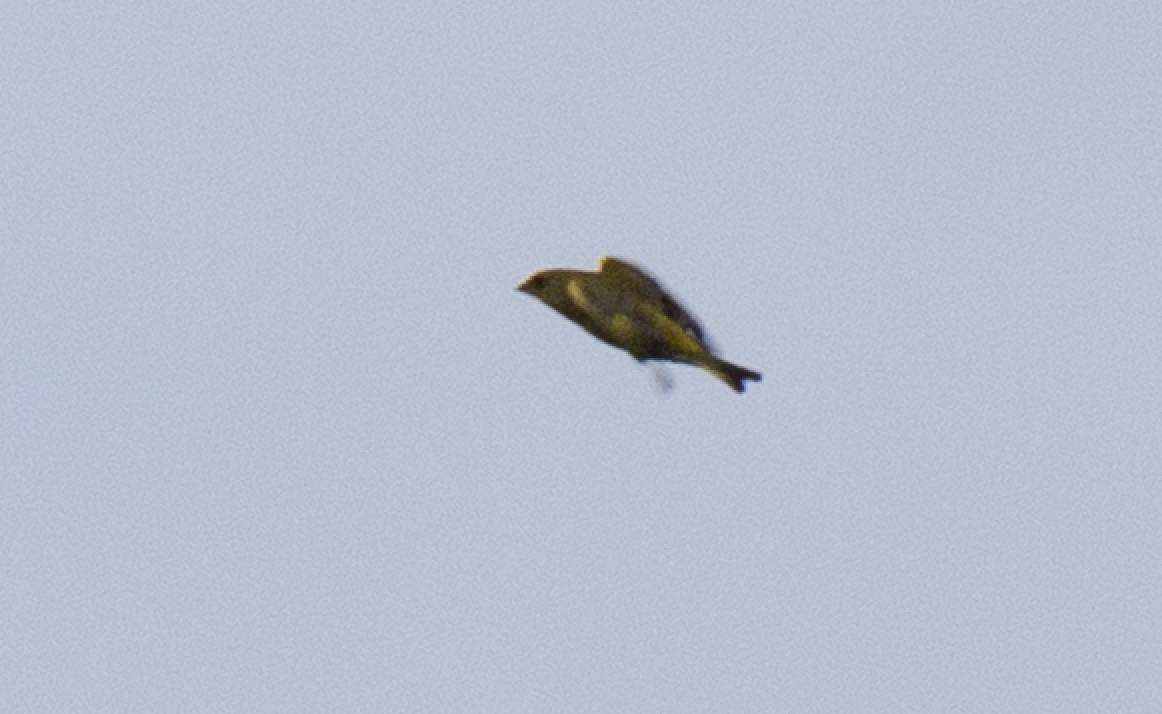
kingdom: Plantae
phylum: Tracheophyta
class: Liliopsida
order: Poales
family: Poaceae
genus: Chloris
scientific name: Chloris chloris
